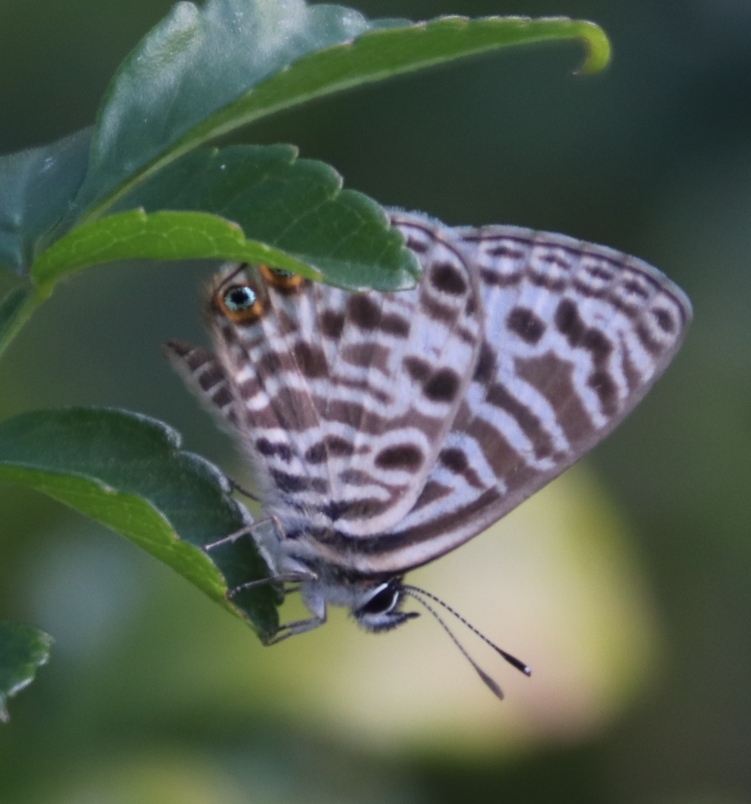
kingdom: Animalia
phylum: Arthropoda
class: Insecta
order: Lepidoptera
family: Lycaenidae
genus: Leptotes
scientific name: Leptotes
